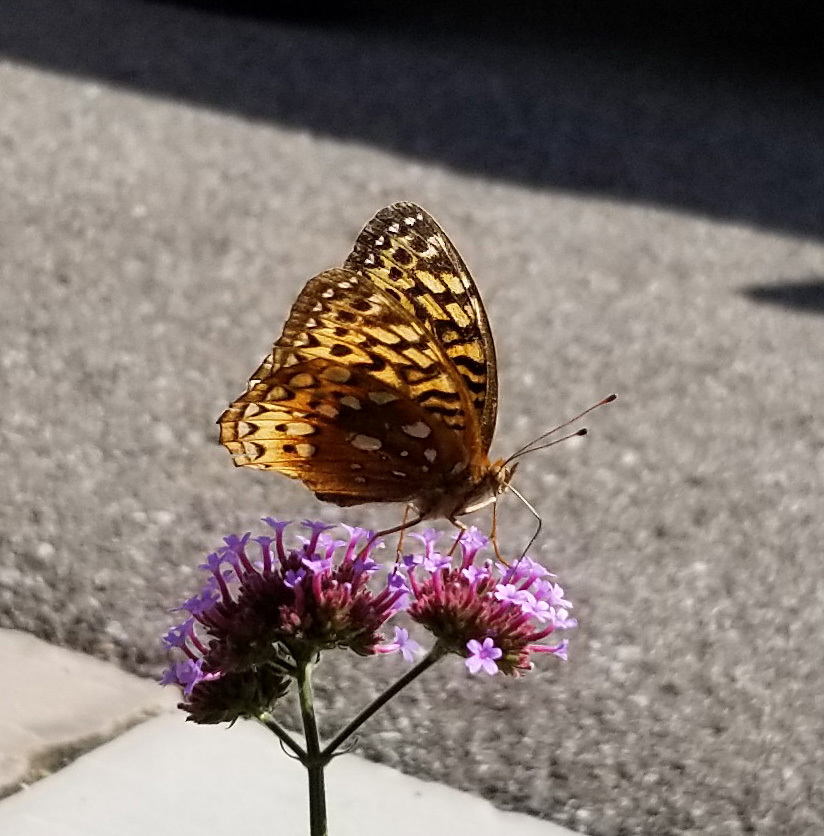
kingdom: Animalia
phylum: Arthropoda
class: Insecta
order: Lepidoptera
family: Nymphalidae
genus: Speyeria
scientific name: Speyeria cybele
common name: Great spangled fritillary
